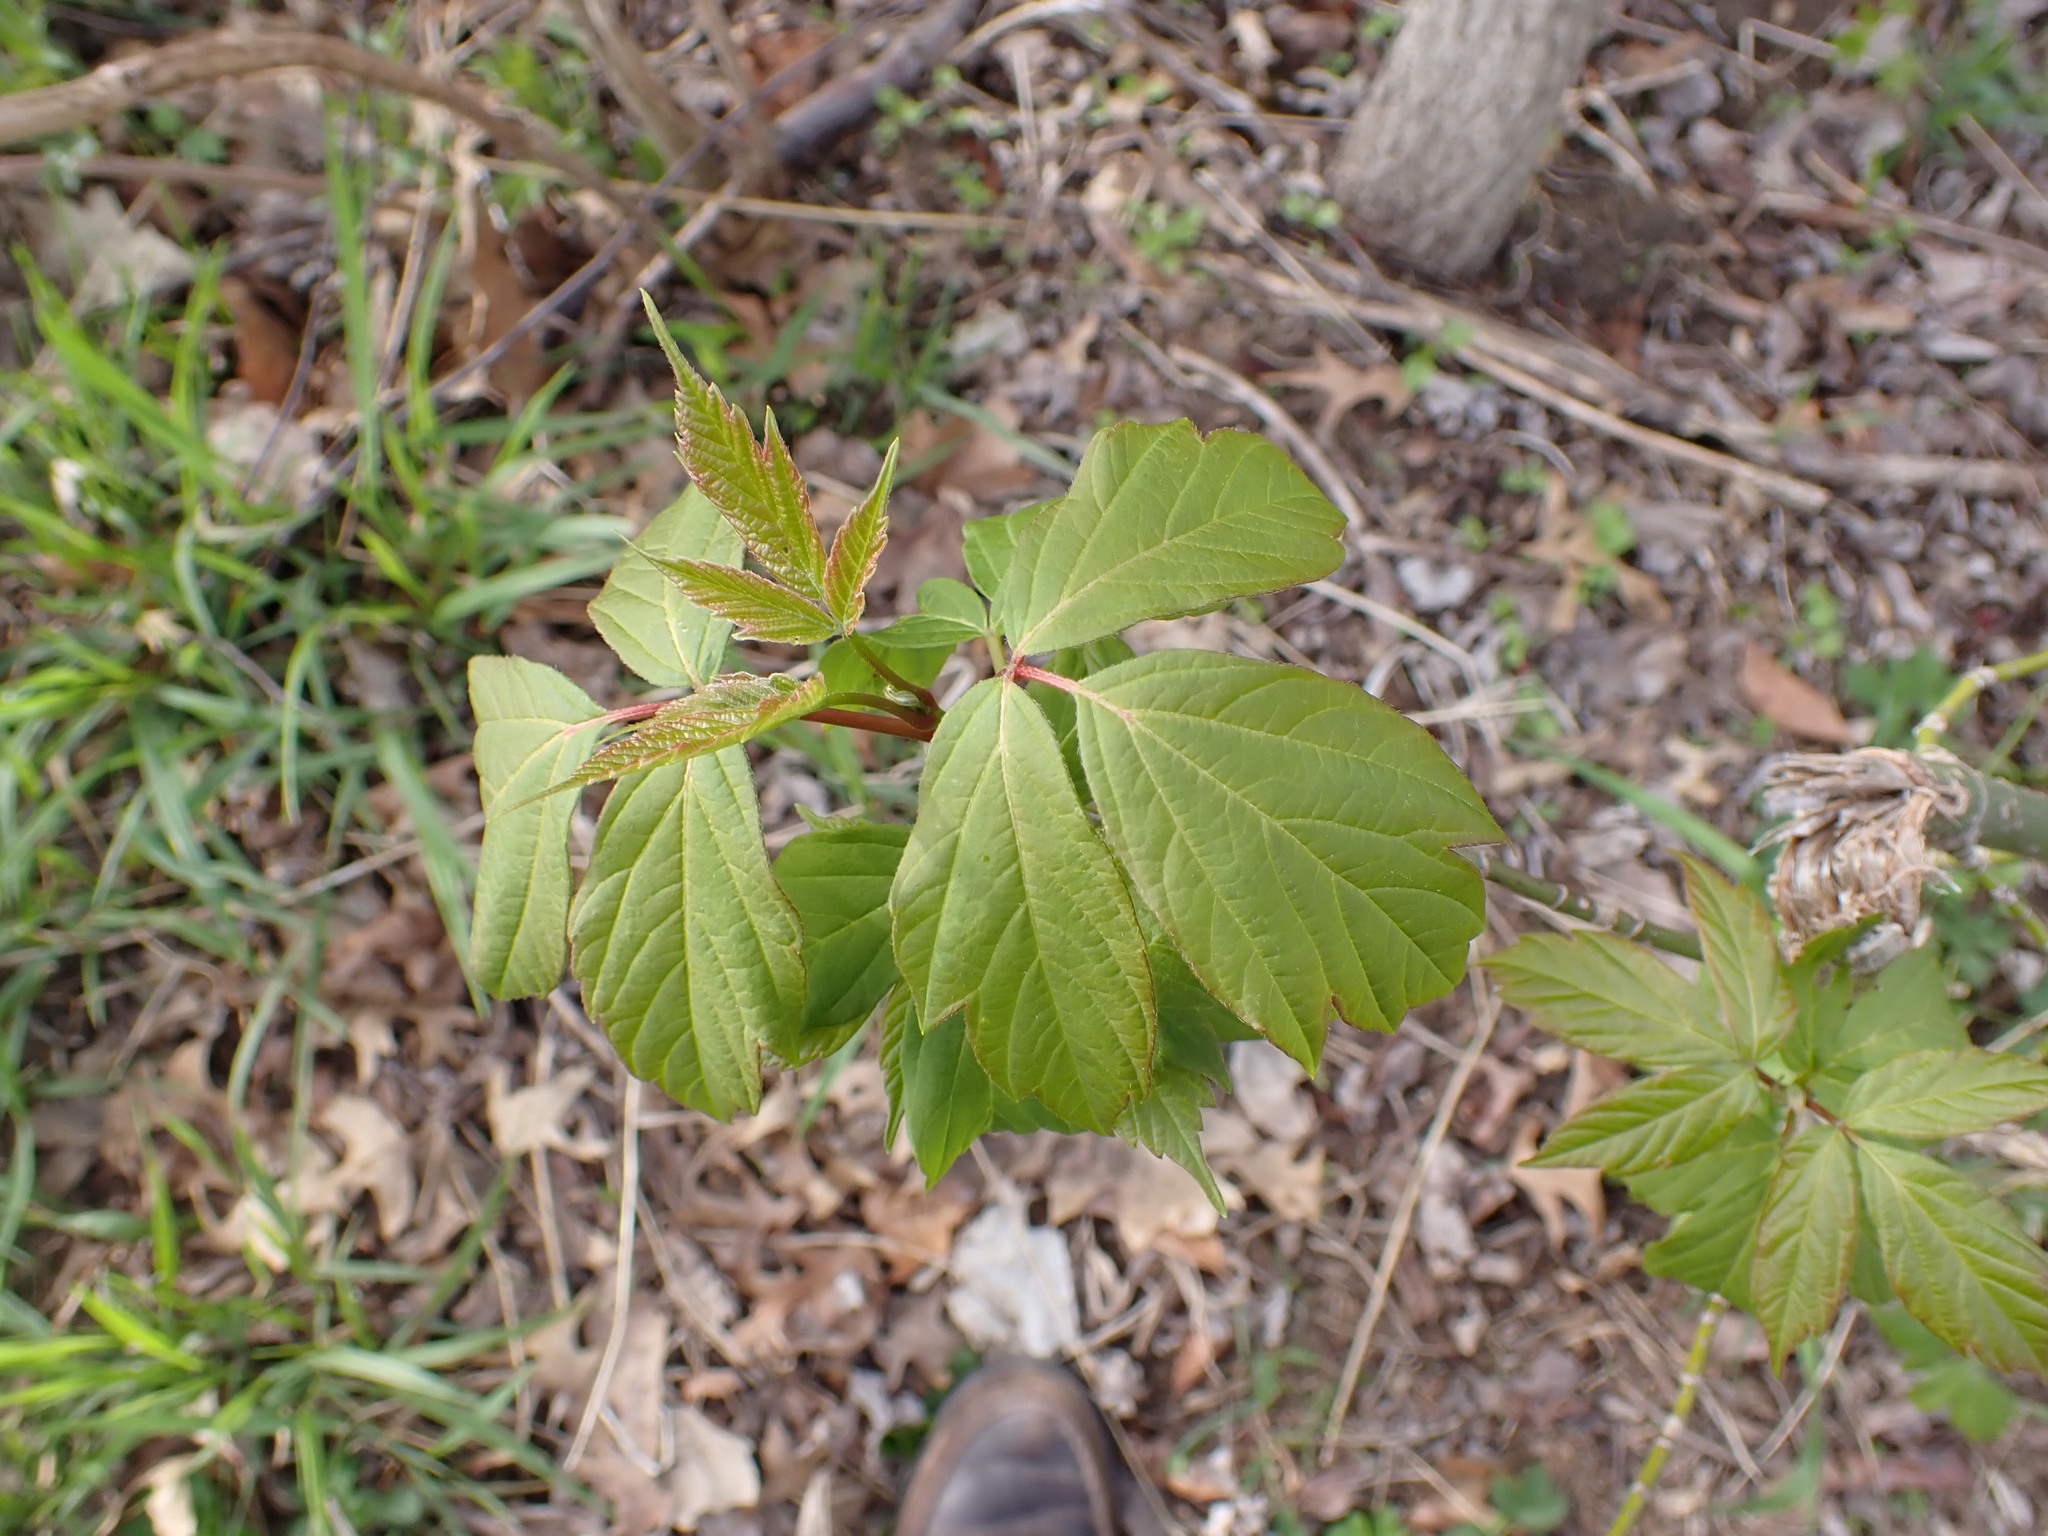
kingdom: Plantae
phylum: Tracheophyta
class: Magnoliopsida
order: Sapindales
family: Sapindaceae
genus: Acer
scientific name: Acer negundo
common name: Ashleaf maple
